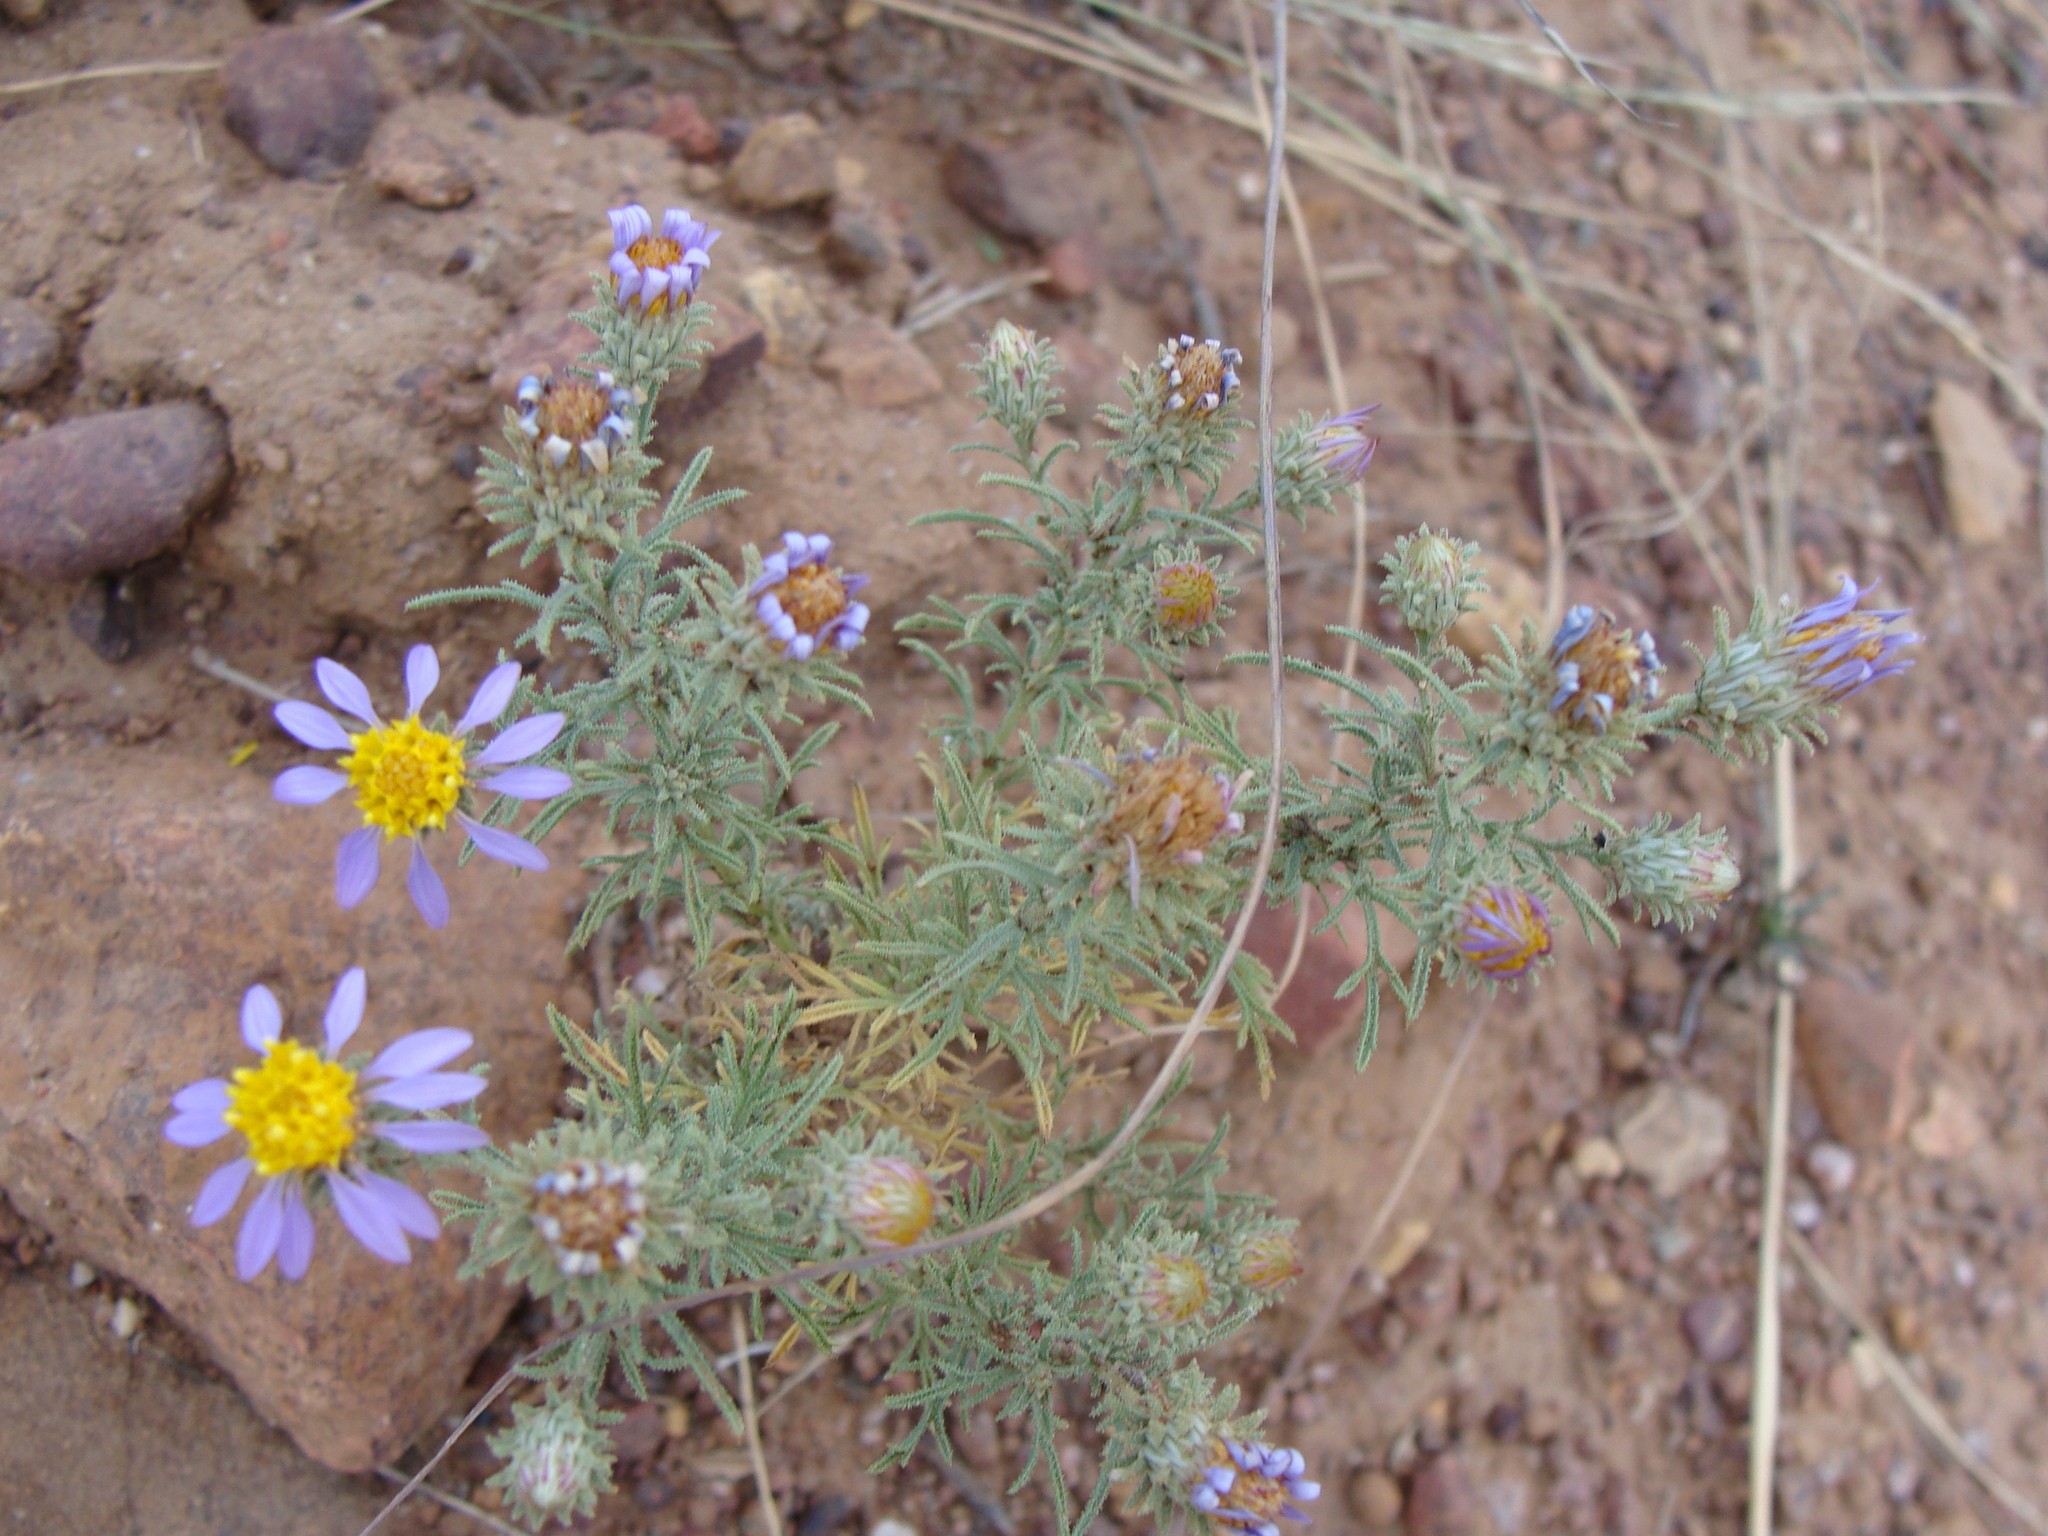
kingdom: Plantae
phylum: Tracheophyta
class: Magnoliopsida
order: Asterales
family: Asteraceae
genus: Machaeranthera
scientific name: Machaeranthera tagetina
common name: Mesa tansy-aster
